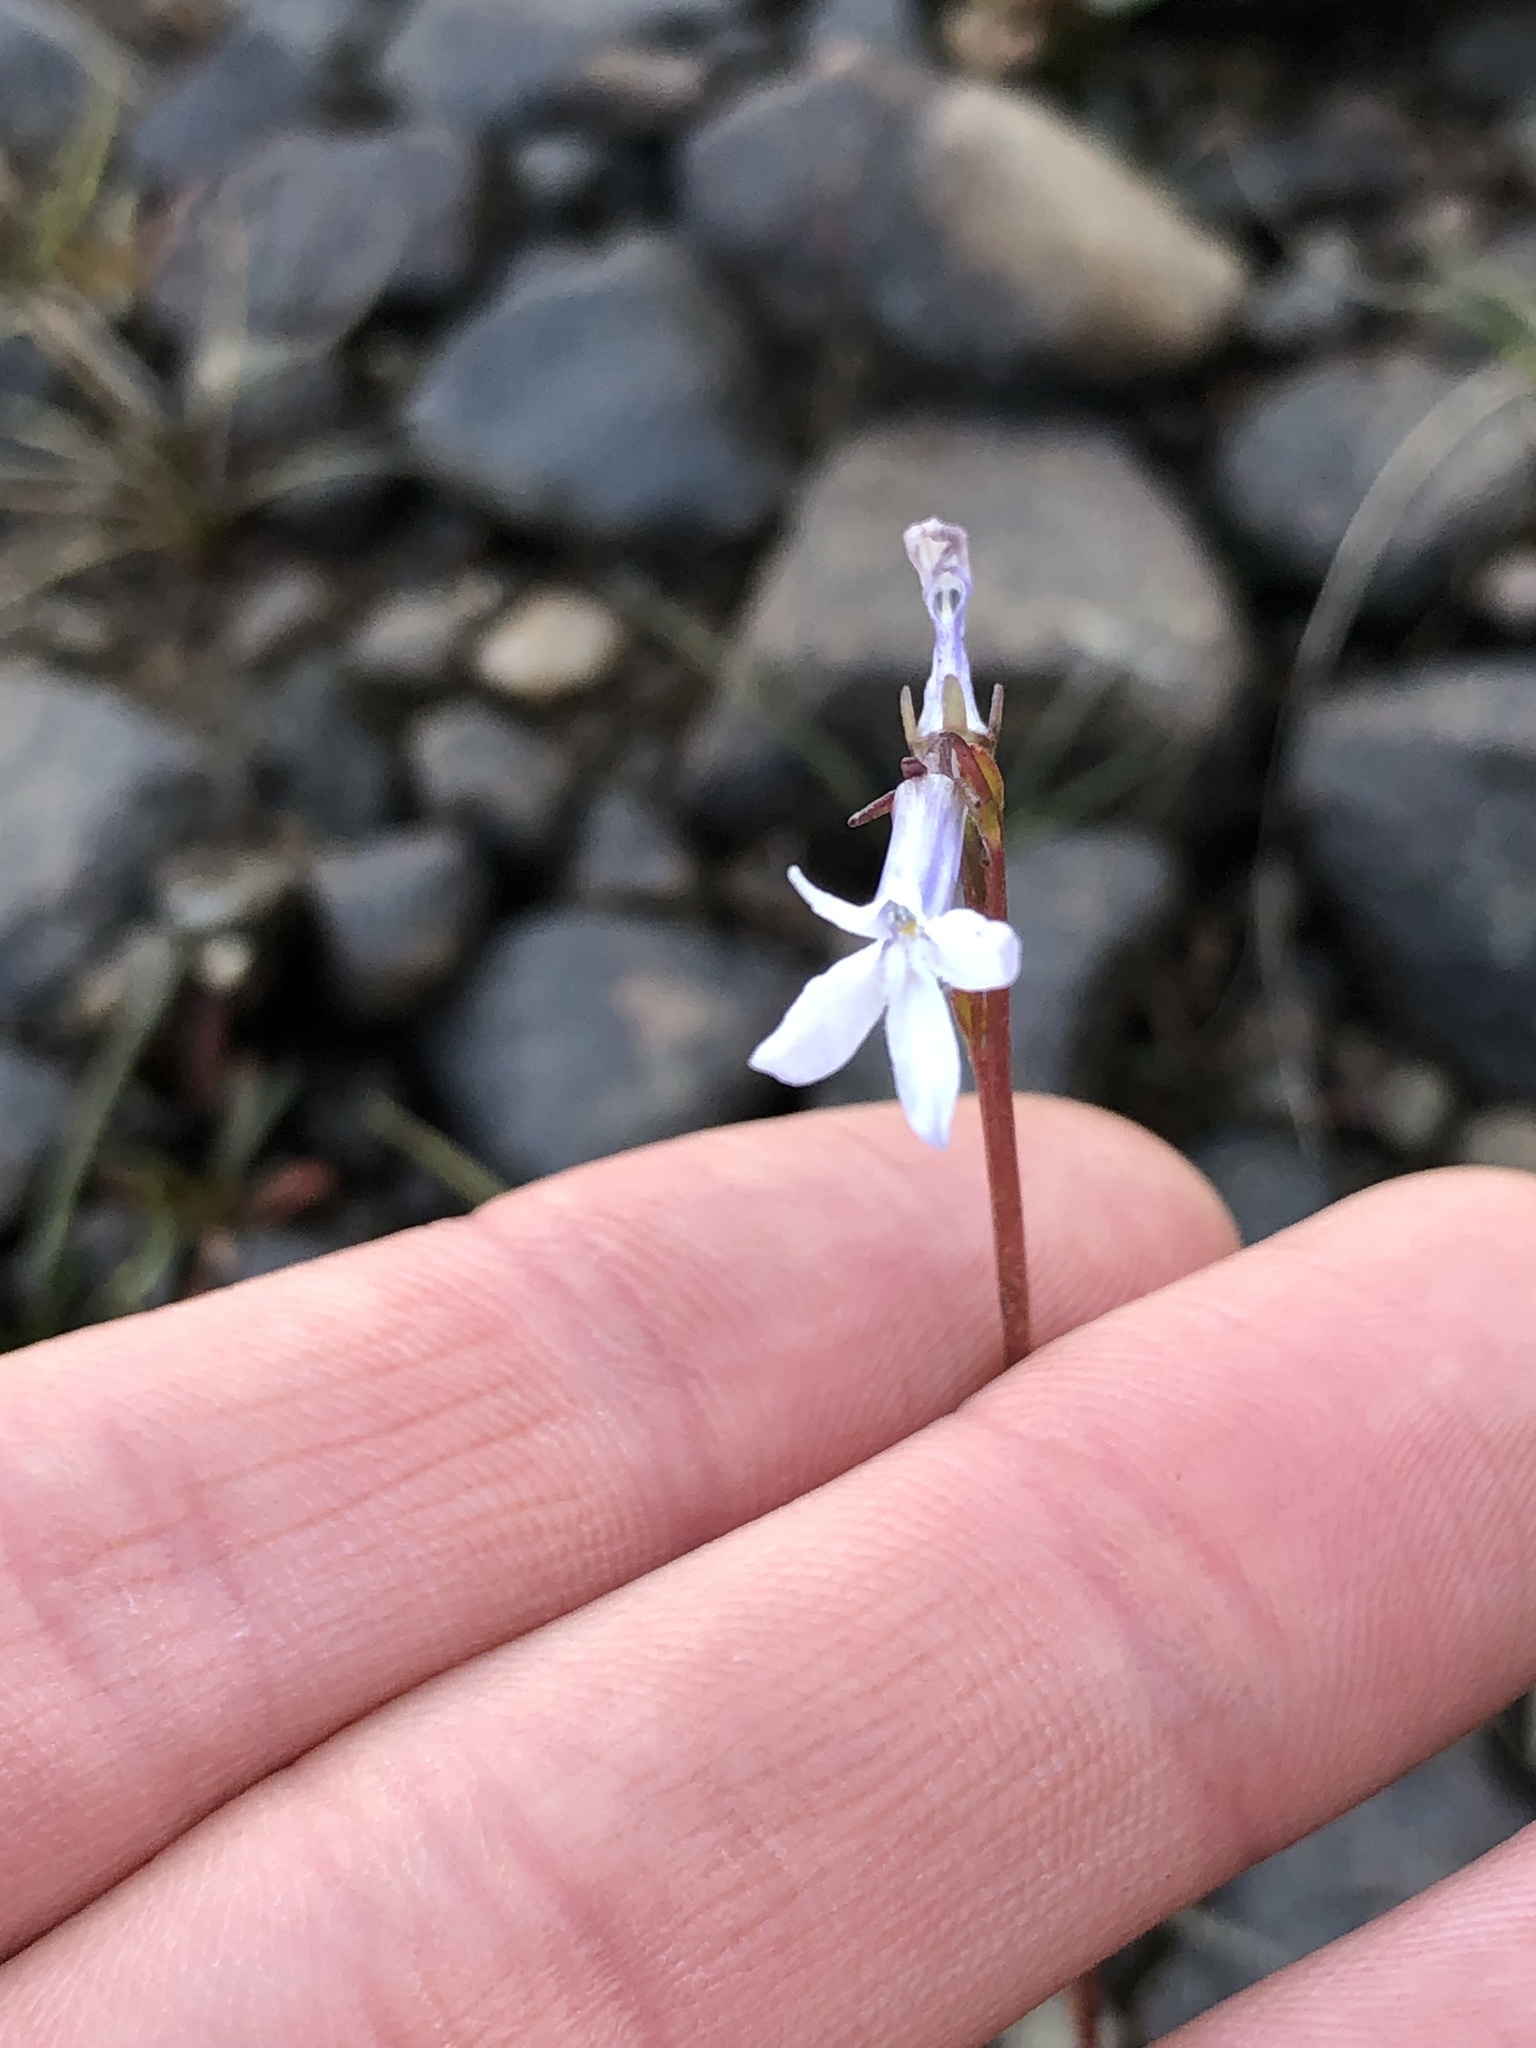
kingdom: Plantae
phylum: Tracheophyta
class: Magnoliopsida
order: Asterales
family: Campanulaceae
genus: Lobelia
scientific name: Lobelia dortmanna
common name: Water lobelia
